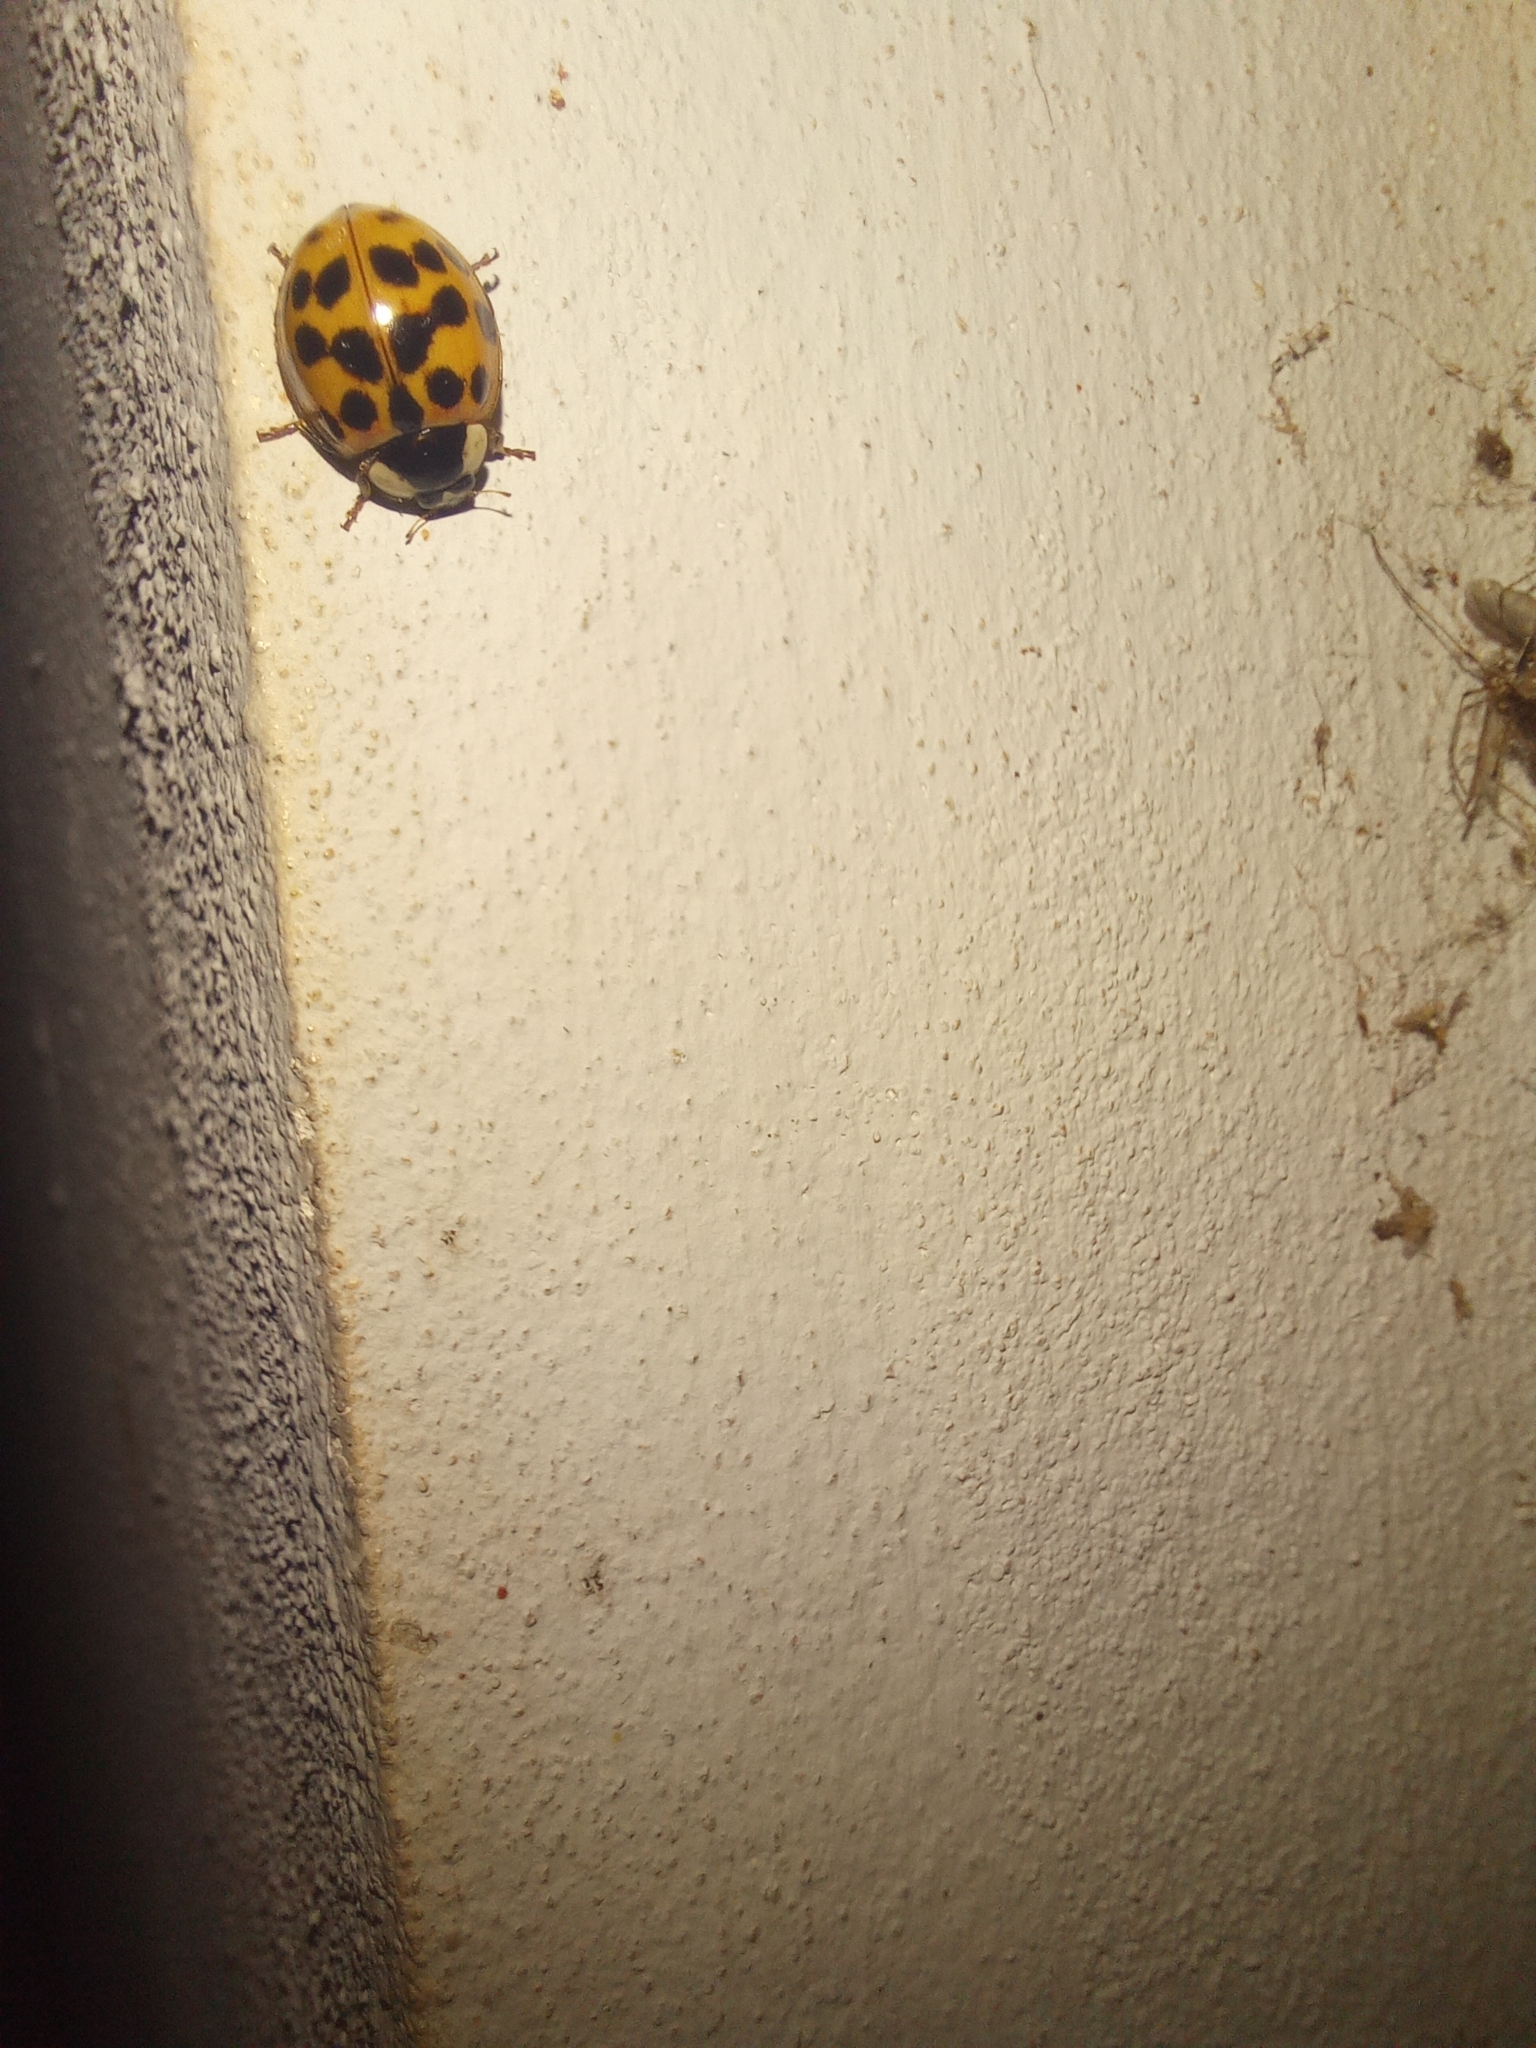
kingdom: Animalia
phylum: Arthropoda
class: Insecta
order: Coleoptera
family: Coccinellidae
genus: Harmonia
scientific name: Harmonia axyridis
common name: Harlequin ladybird
